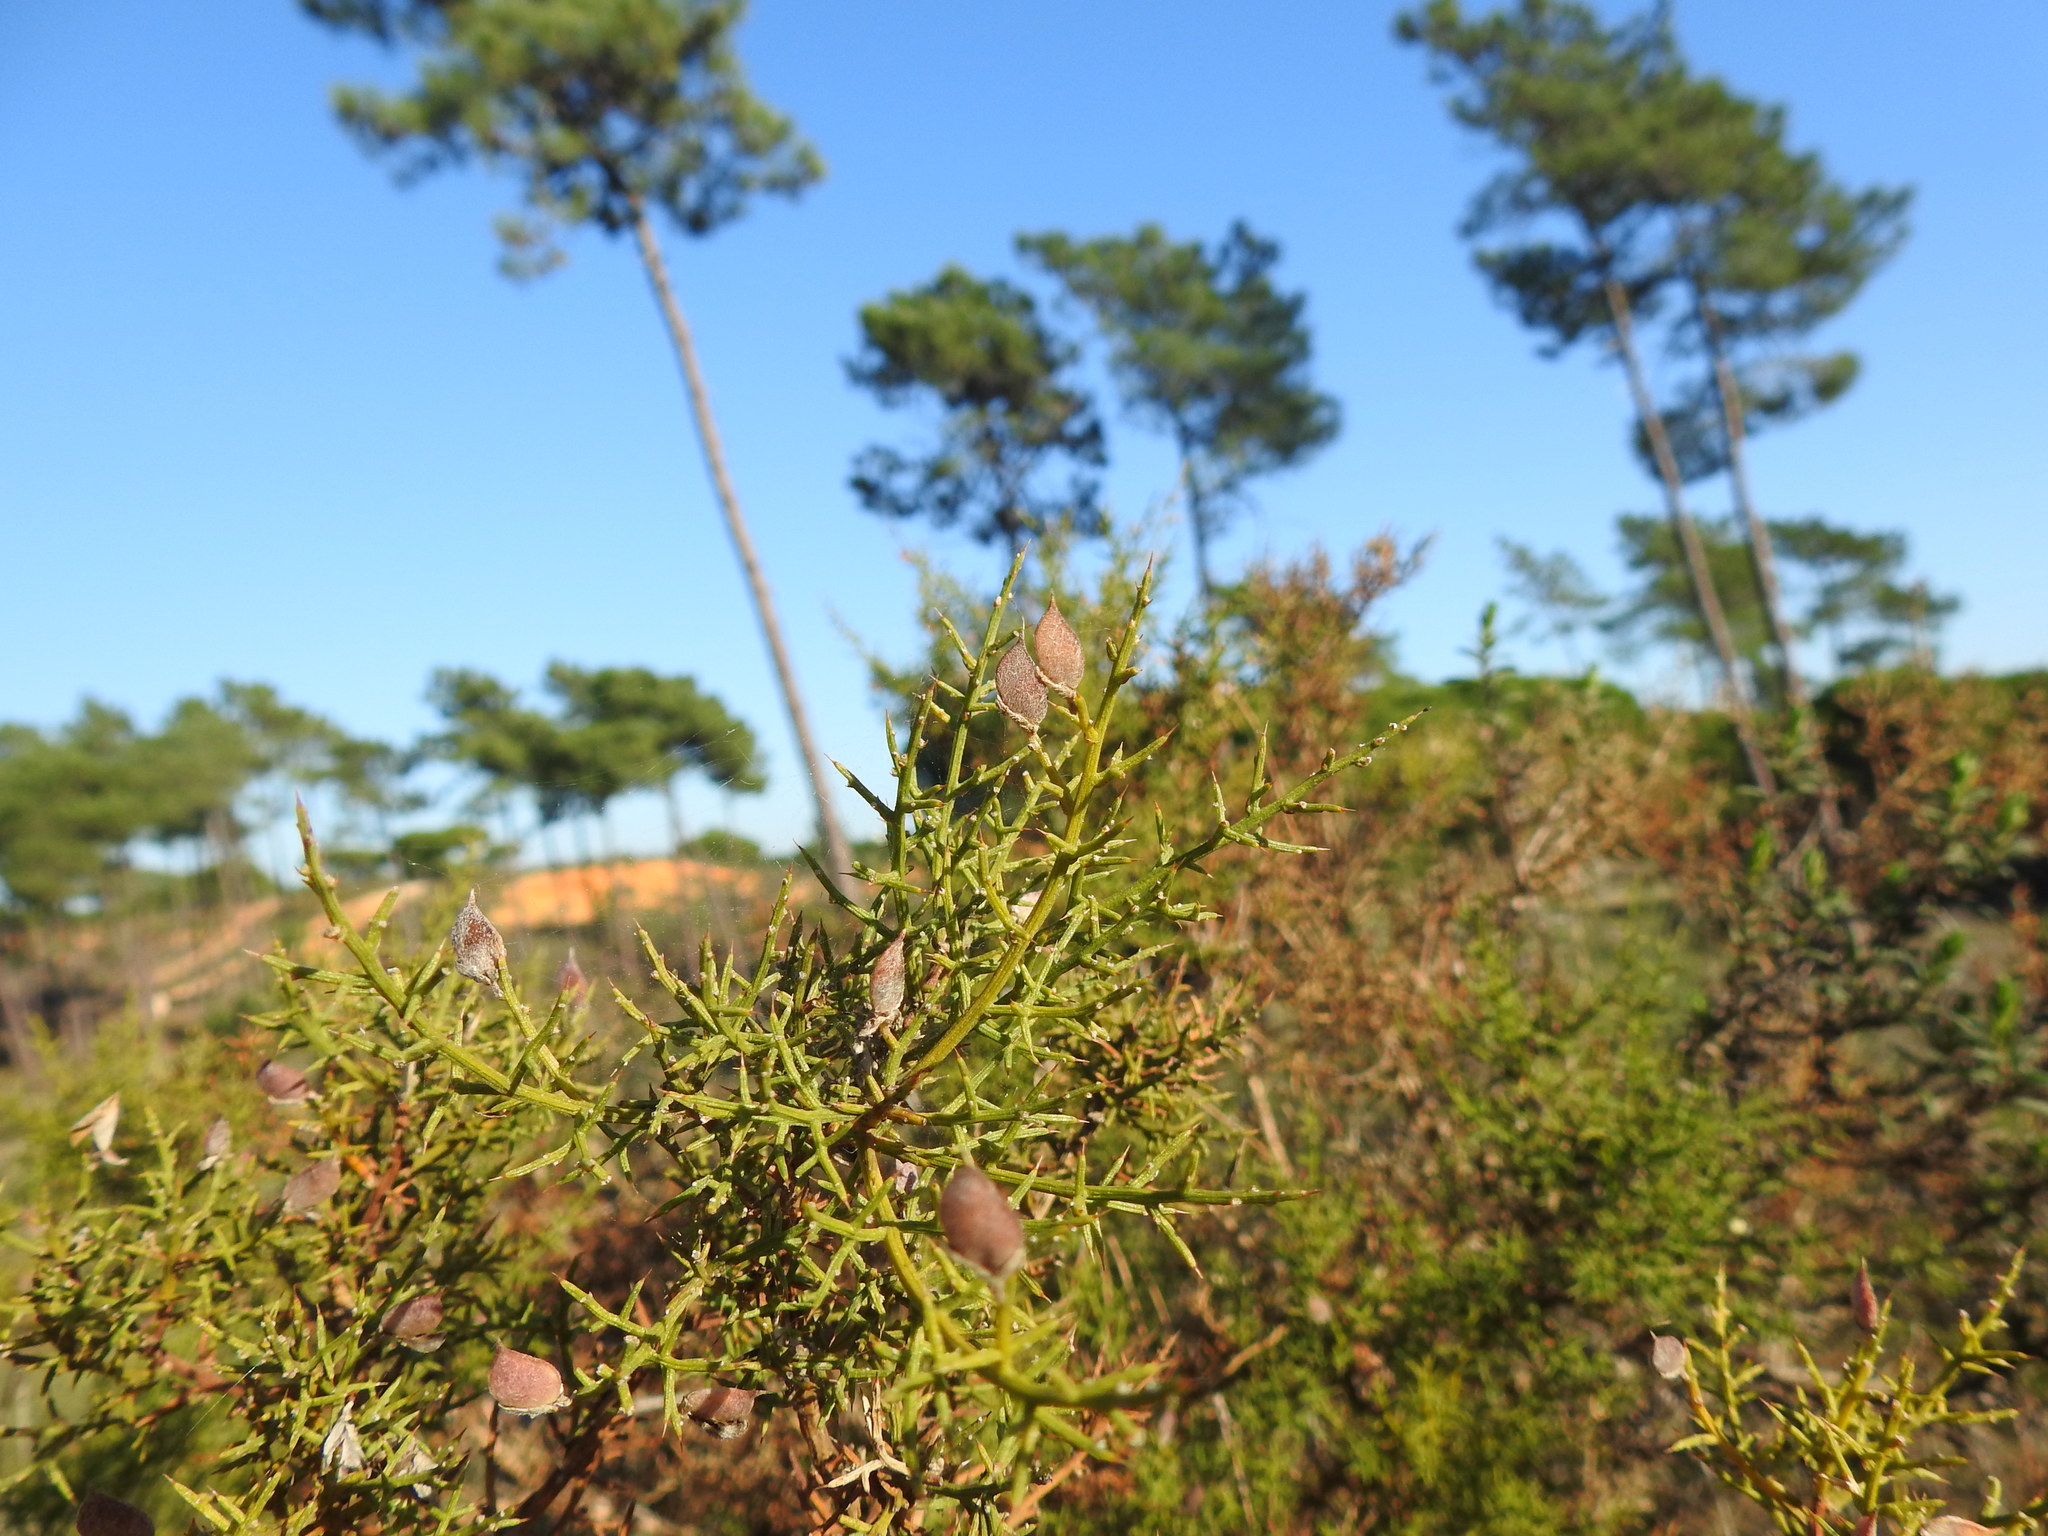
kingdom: Plantae
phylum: Tracheophyta
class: Magnoliopsida
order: Fabales
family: Fabaceae
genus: Stauracanthus
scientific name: Stauracanthus boivinii
